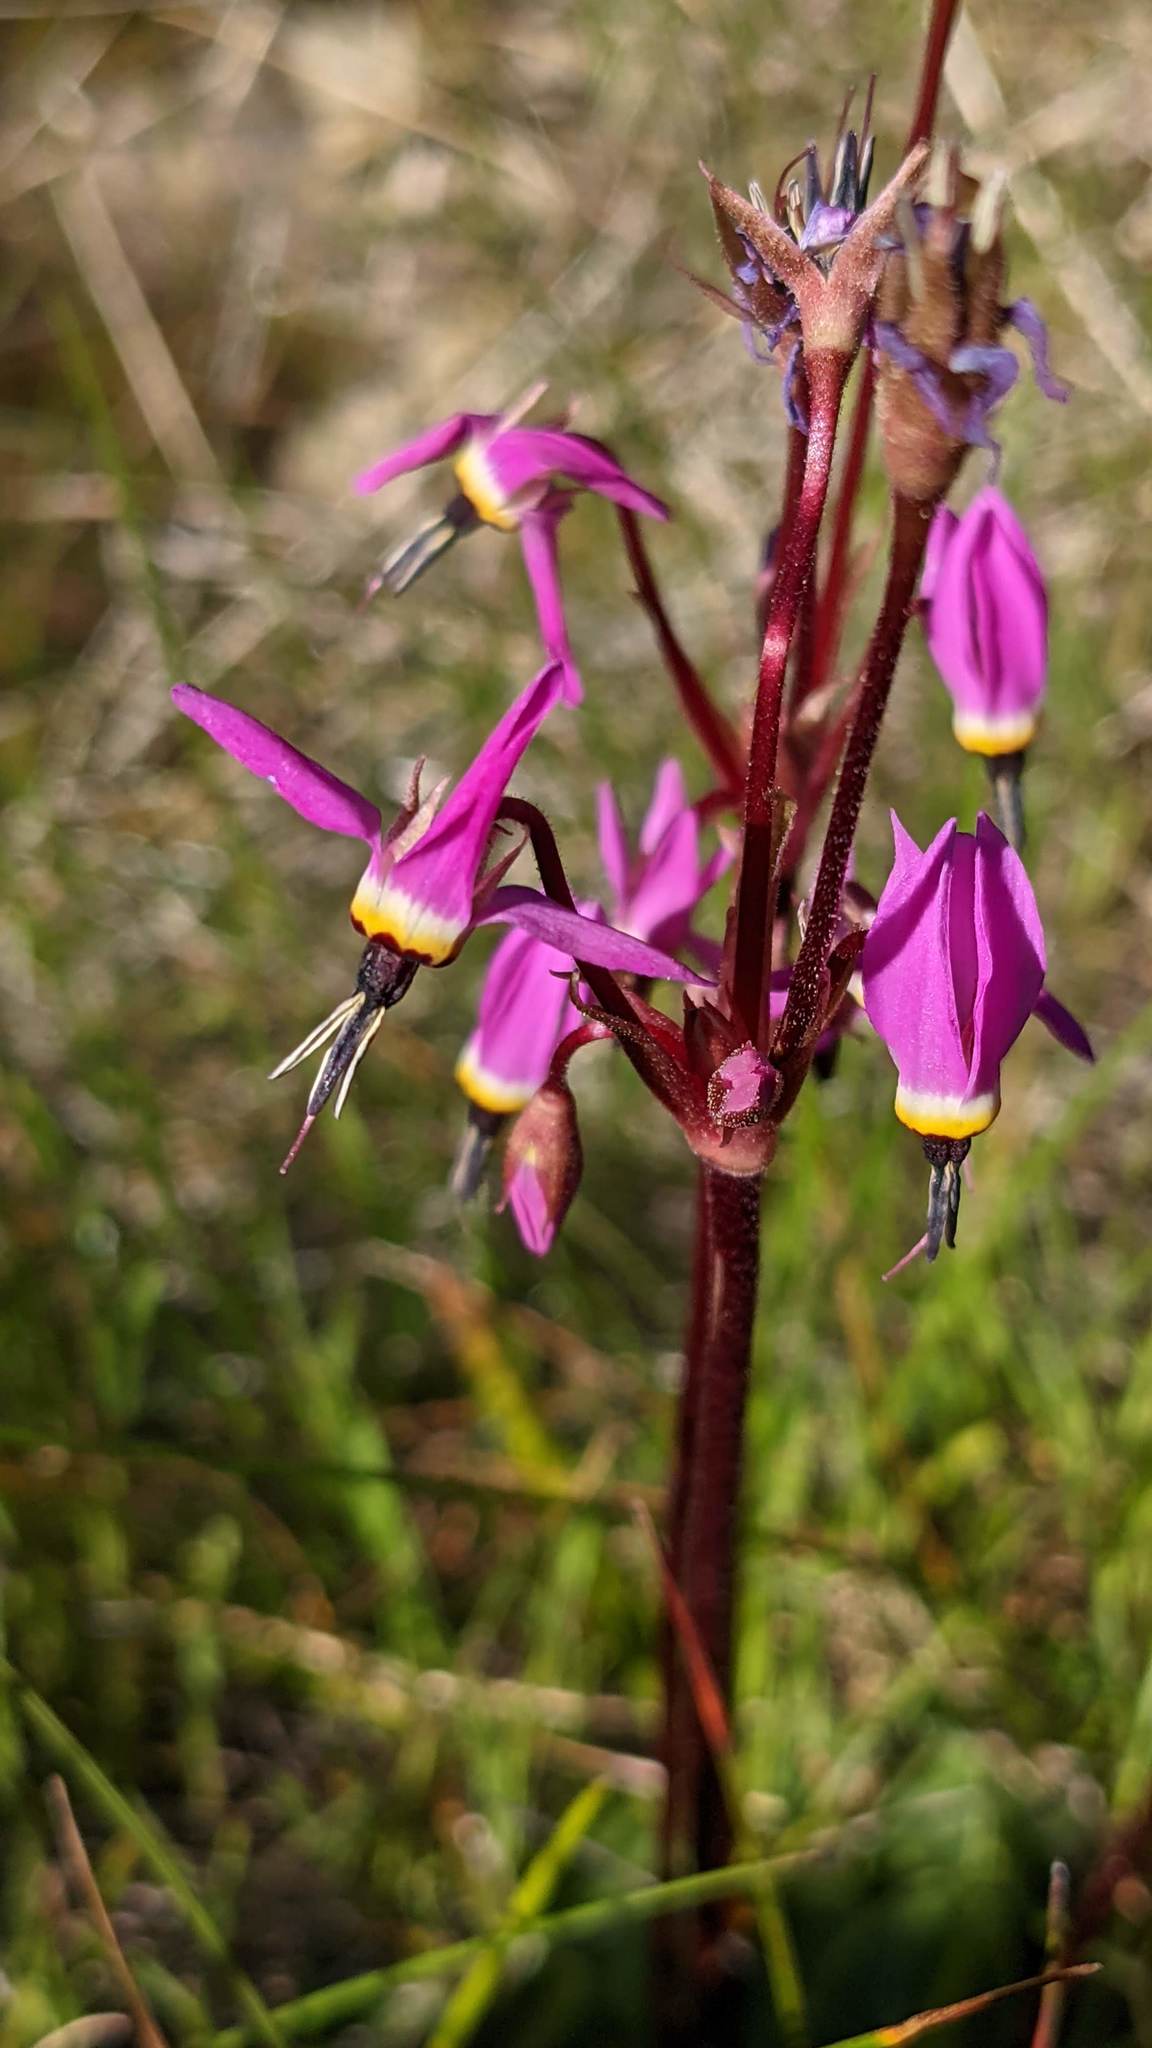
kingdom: Plantae
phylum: Tracheophyta
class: Magnoliopsida
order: Ericales
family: Primulaceae
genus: Dodecatheon
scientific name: Dodecatheon hendersonii
